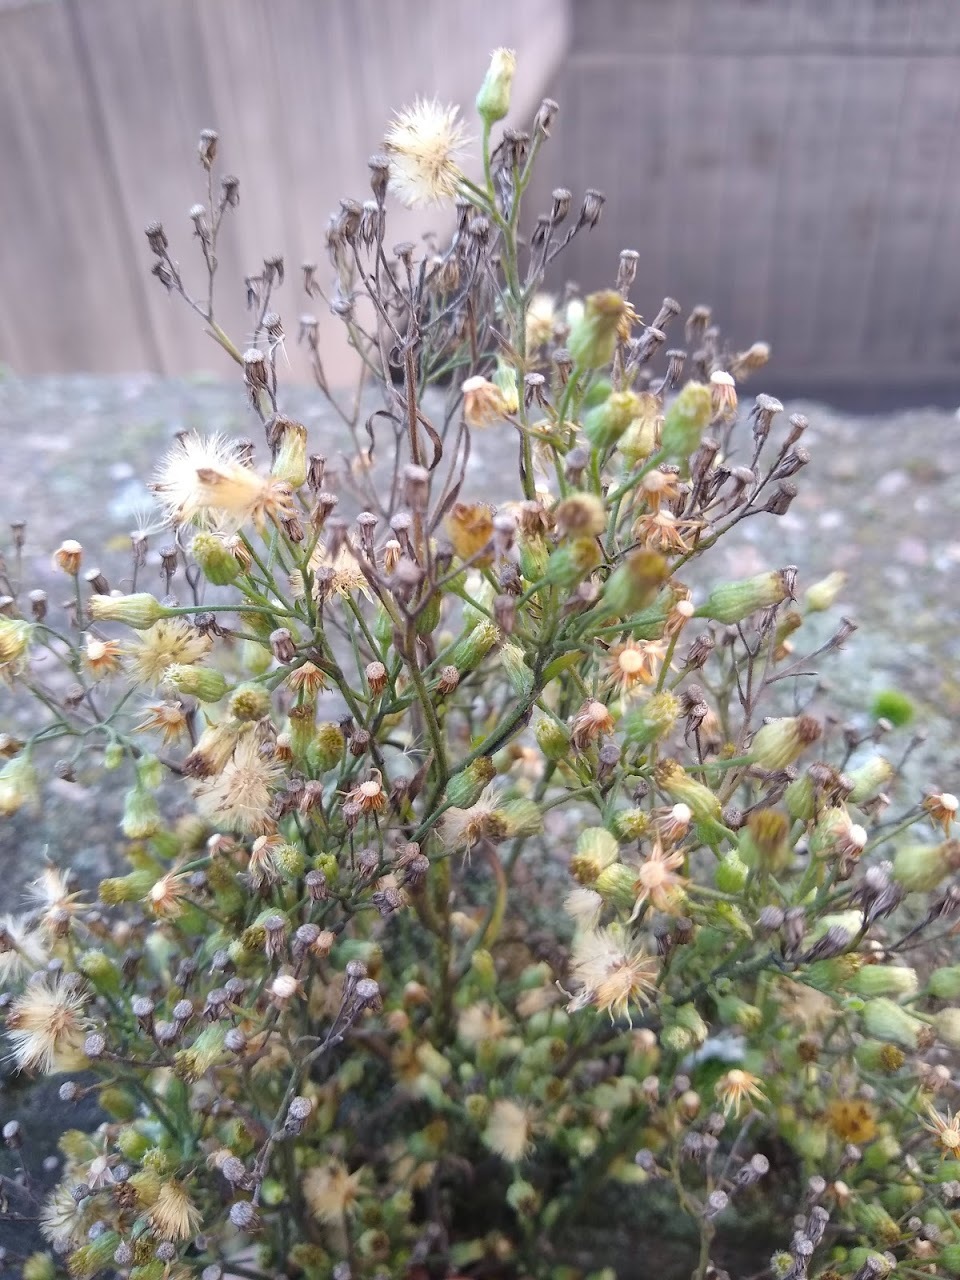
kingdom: Plantae
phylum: Tracheophyta
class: Magnoliopsida
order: Asterales
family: Asteraceae
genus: Erigeron
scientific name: Erigeron sumatrensis
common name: Daisy
